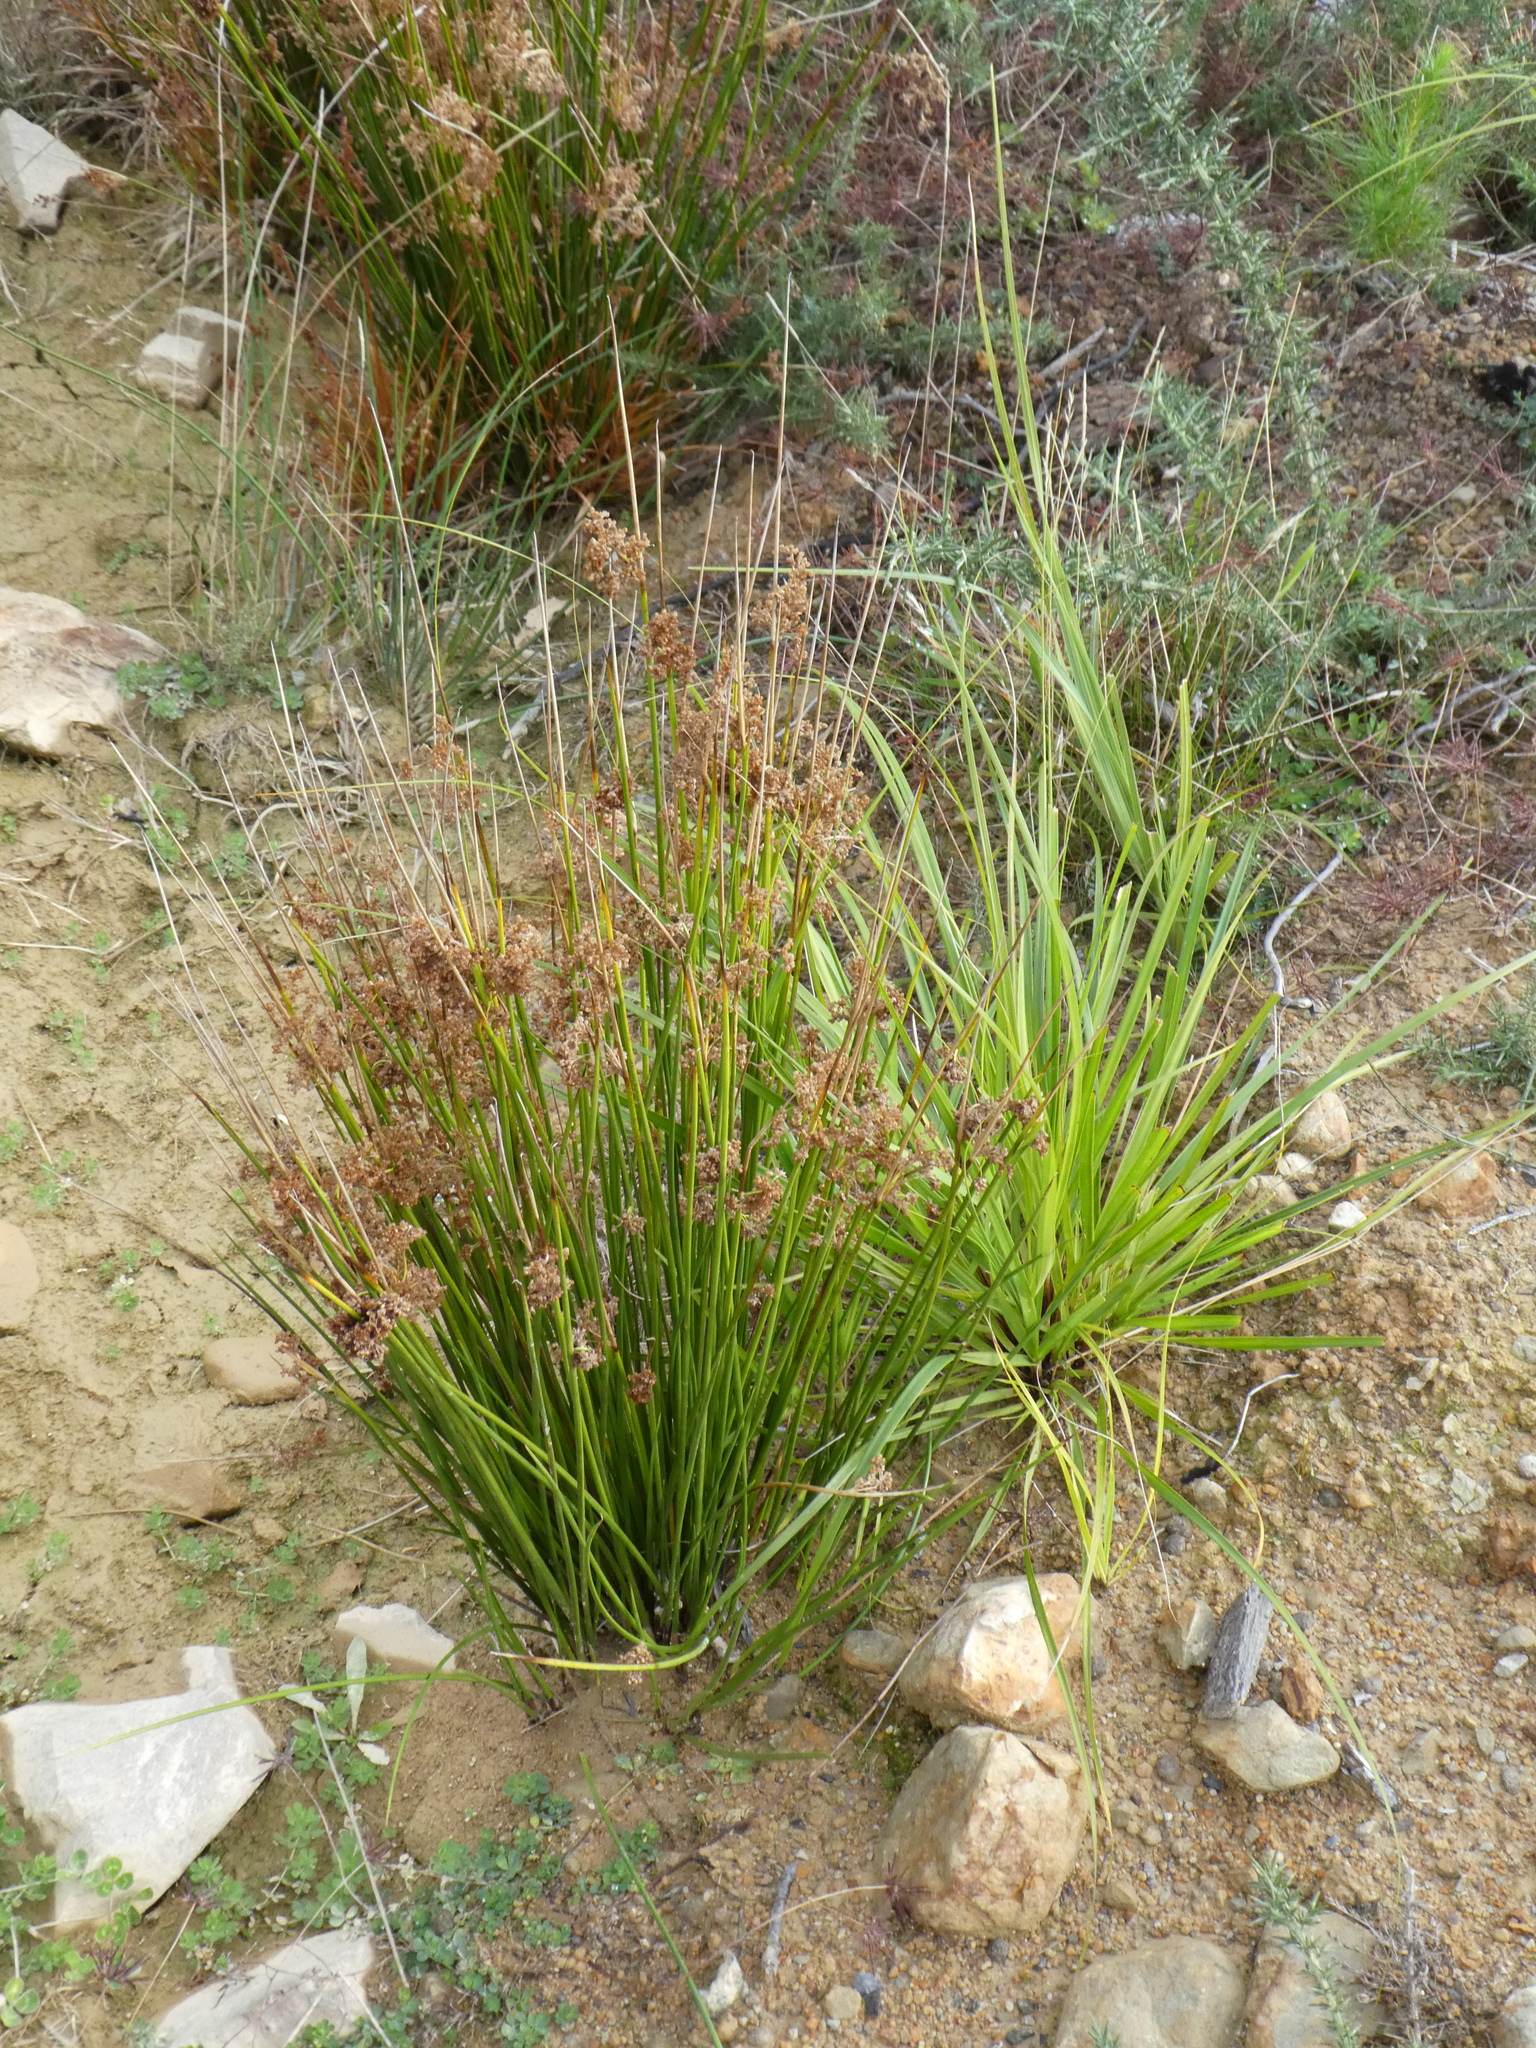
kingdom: Plantae
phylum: Tracheophyta
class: Liliopsida
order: Poales
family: Juncaceae
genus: Juncus
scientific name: Juncus effusus
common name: Soft rush
